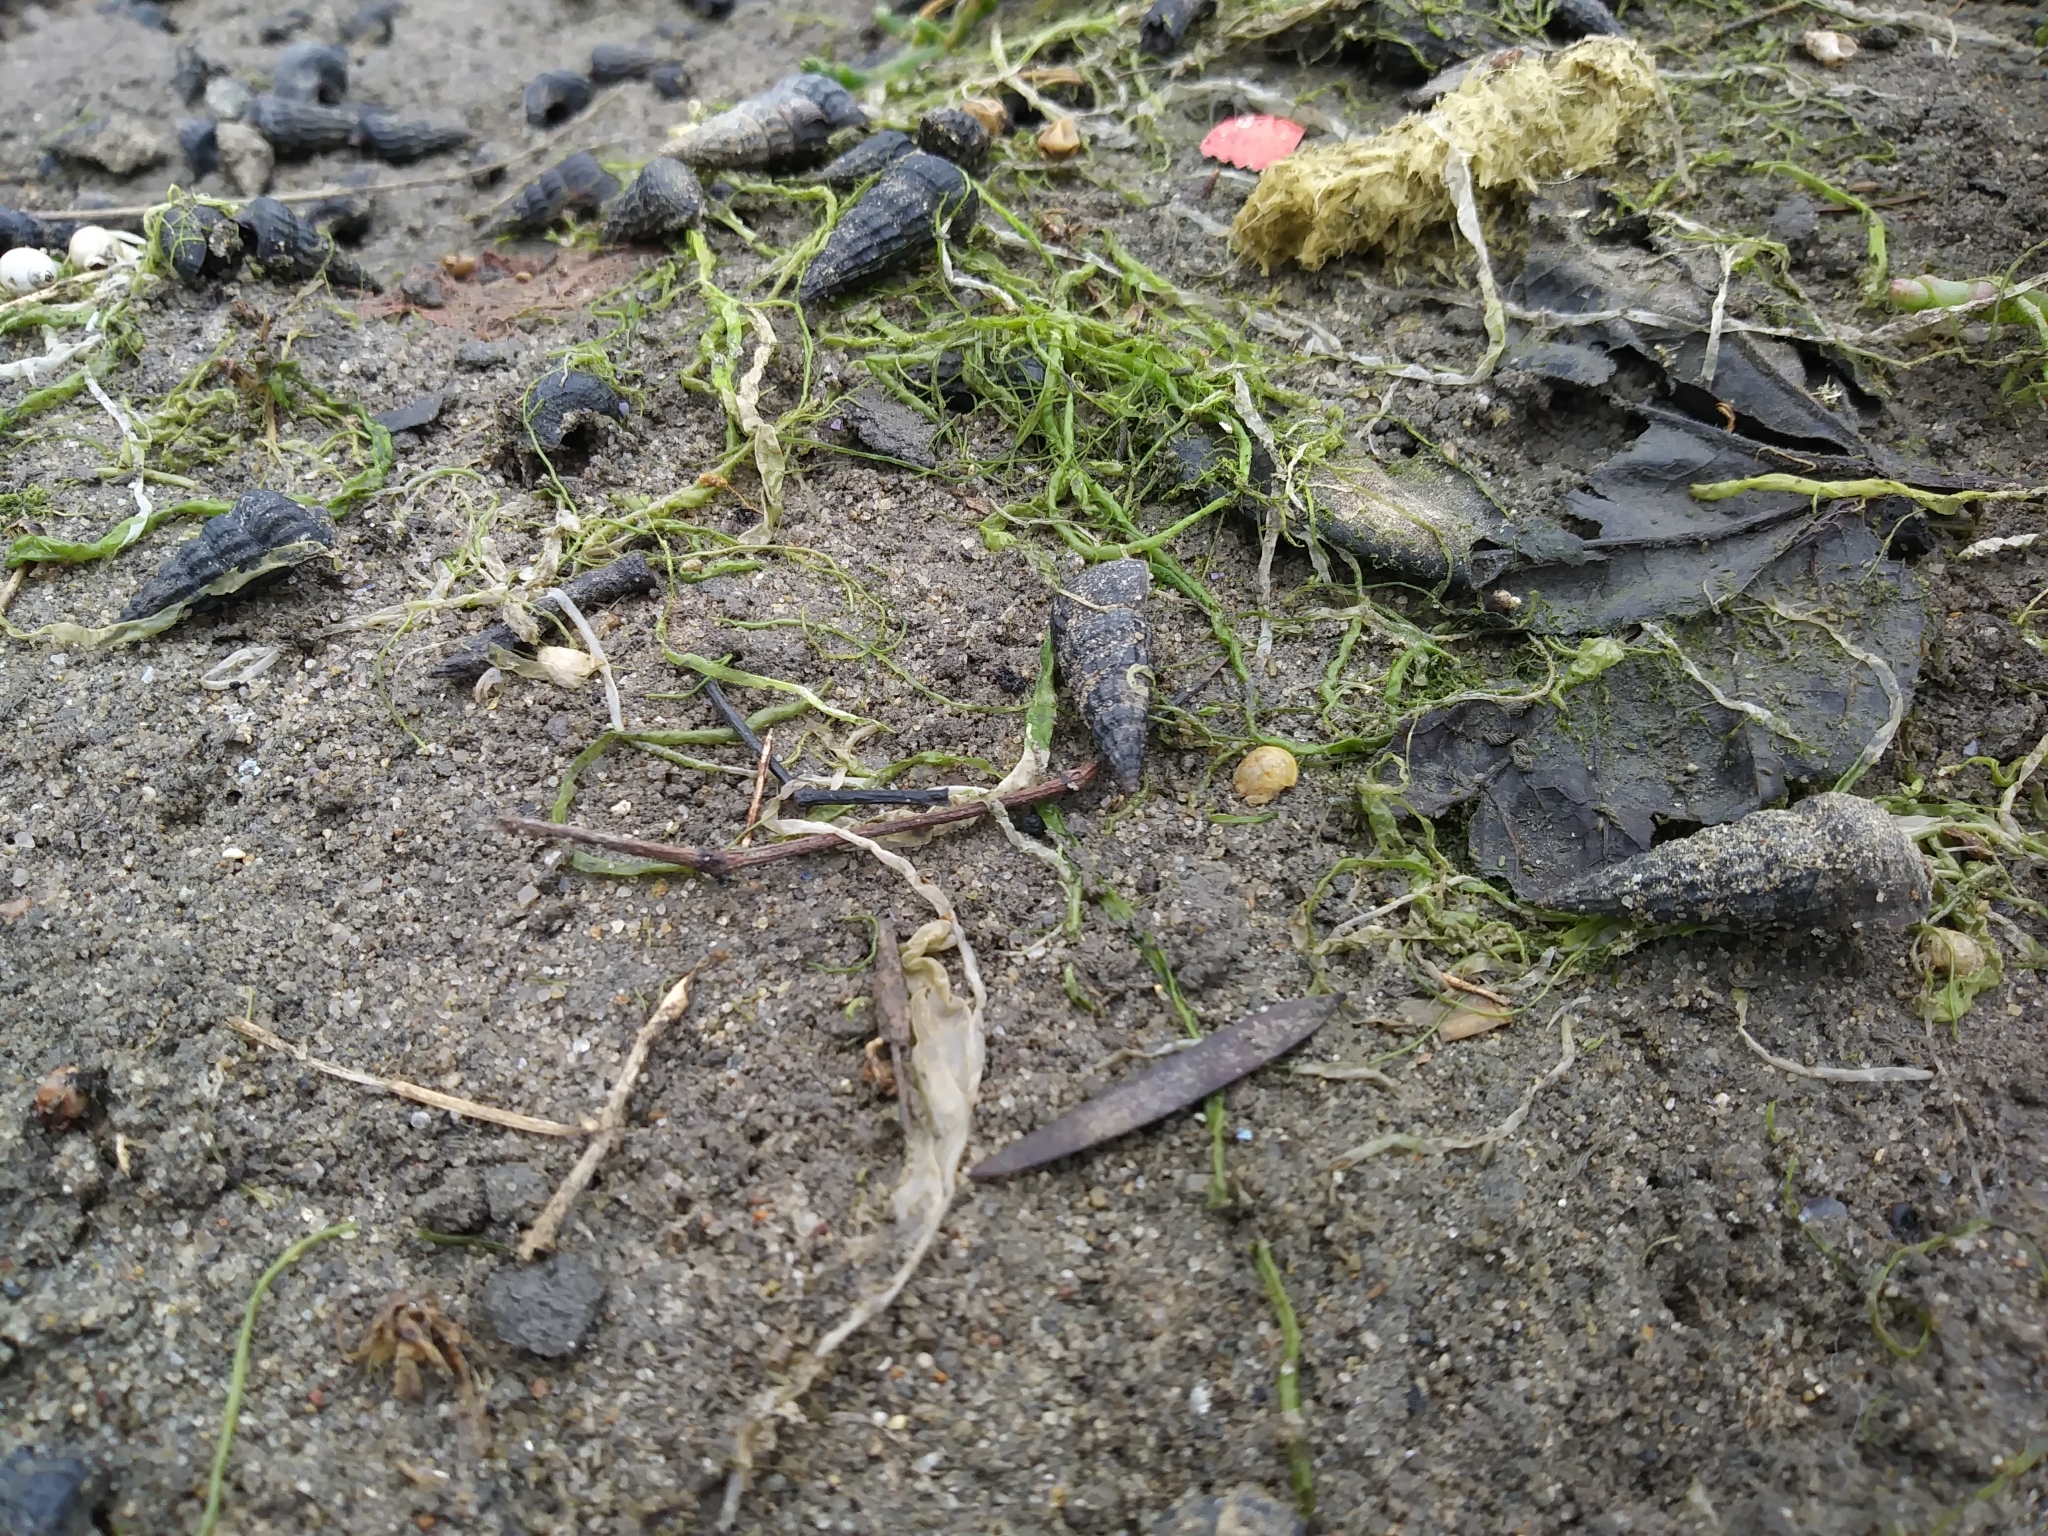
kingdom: Animalia
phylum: Mollusca
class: Gastropoda
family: Potamididae
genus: Cerithideopsis
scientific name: Cerithideopsis californica
